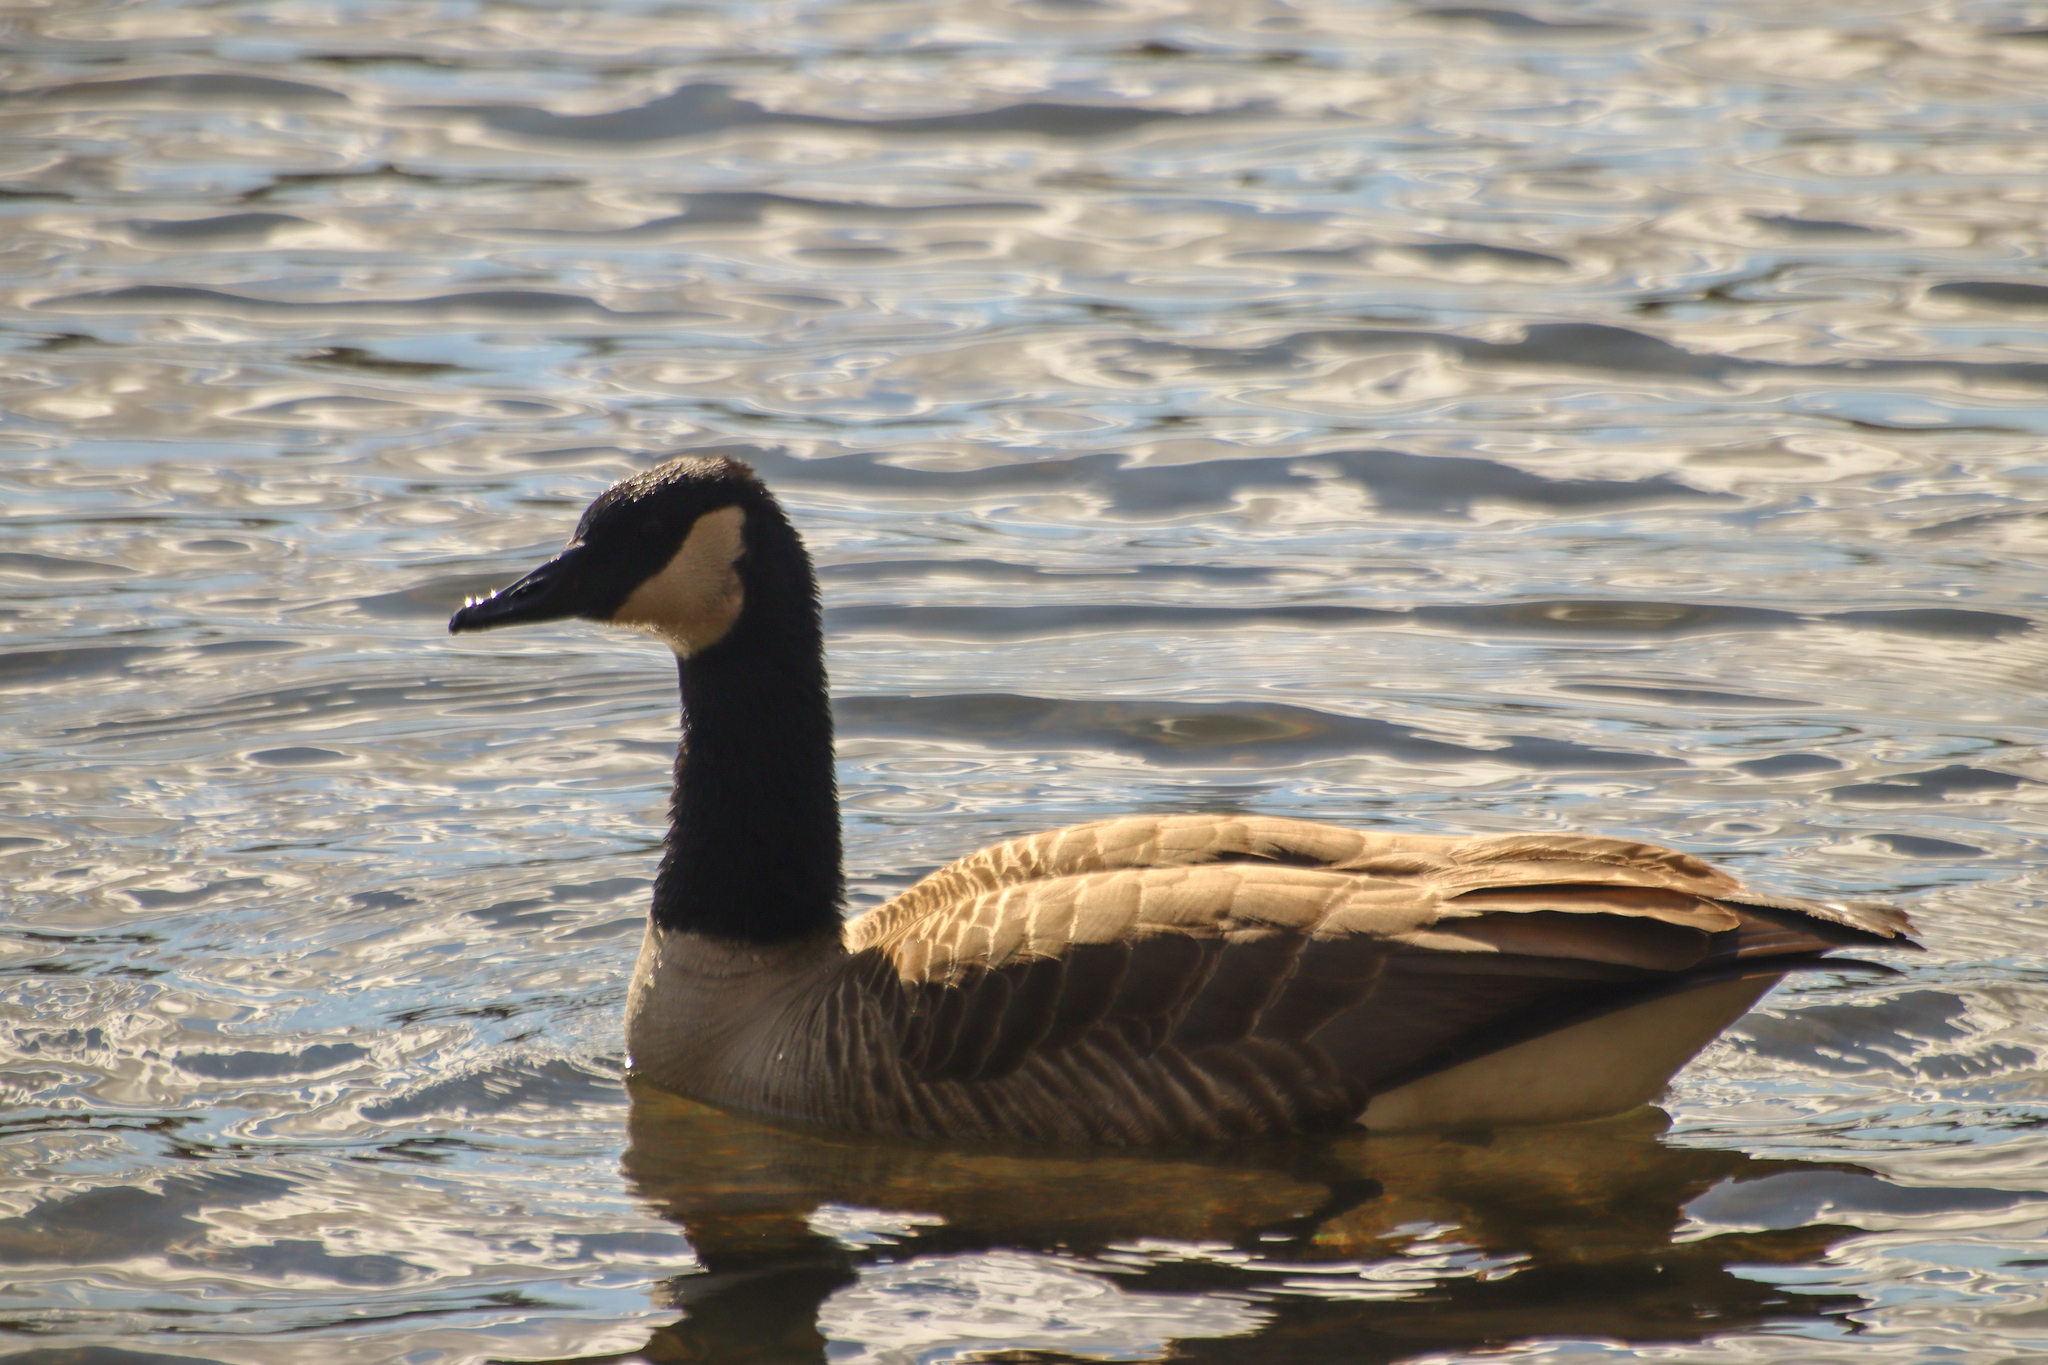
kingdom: Animalia
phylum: Chordata
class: Aves
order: Anseriformes
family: Anatidae
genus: Branta
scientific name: Branta canadensis
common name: Canada goose
